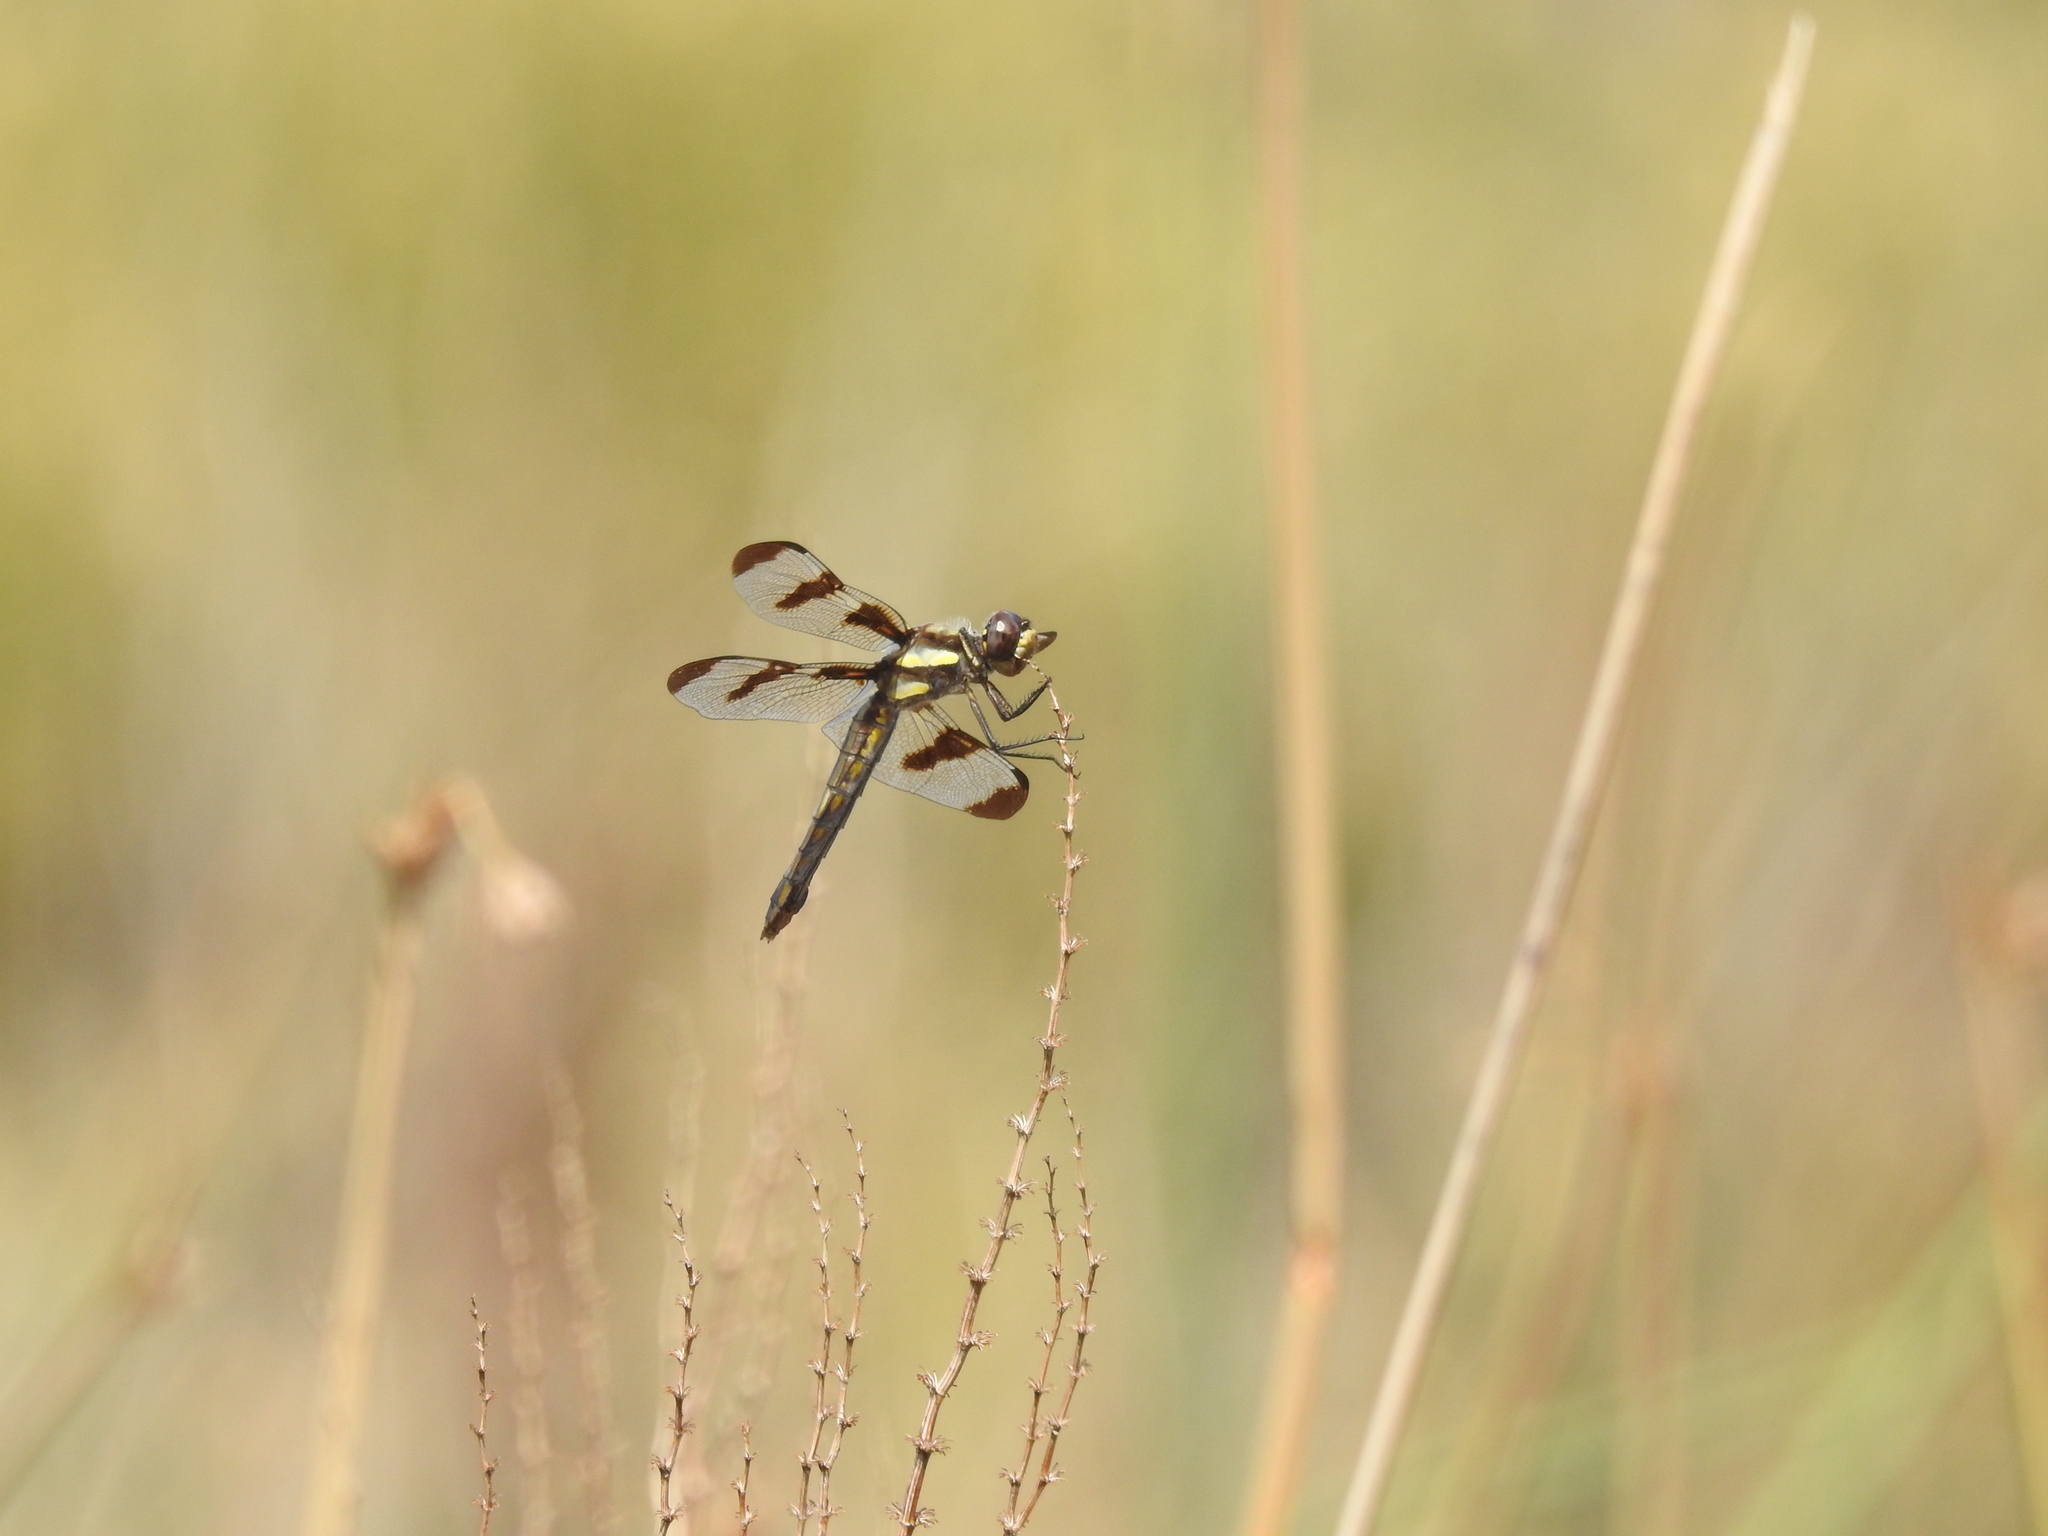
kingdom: Animalia
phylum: Arthropoda
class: Insecta
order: Odonata
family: Libellulidae
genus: Libellula
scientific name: Libellula pulchella
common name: Twelve-spotted skimmer
